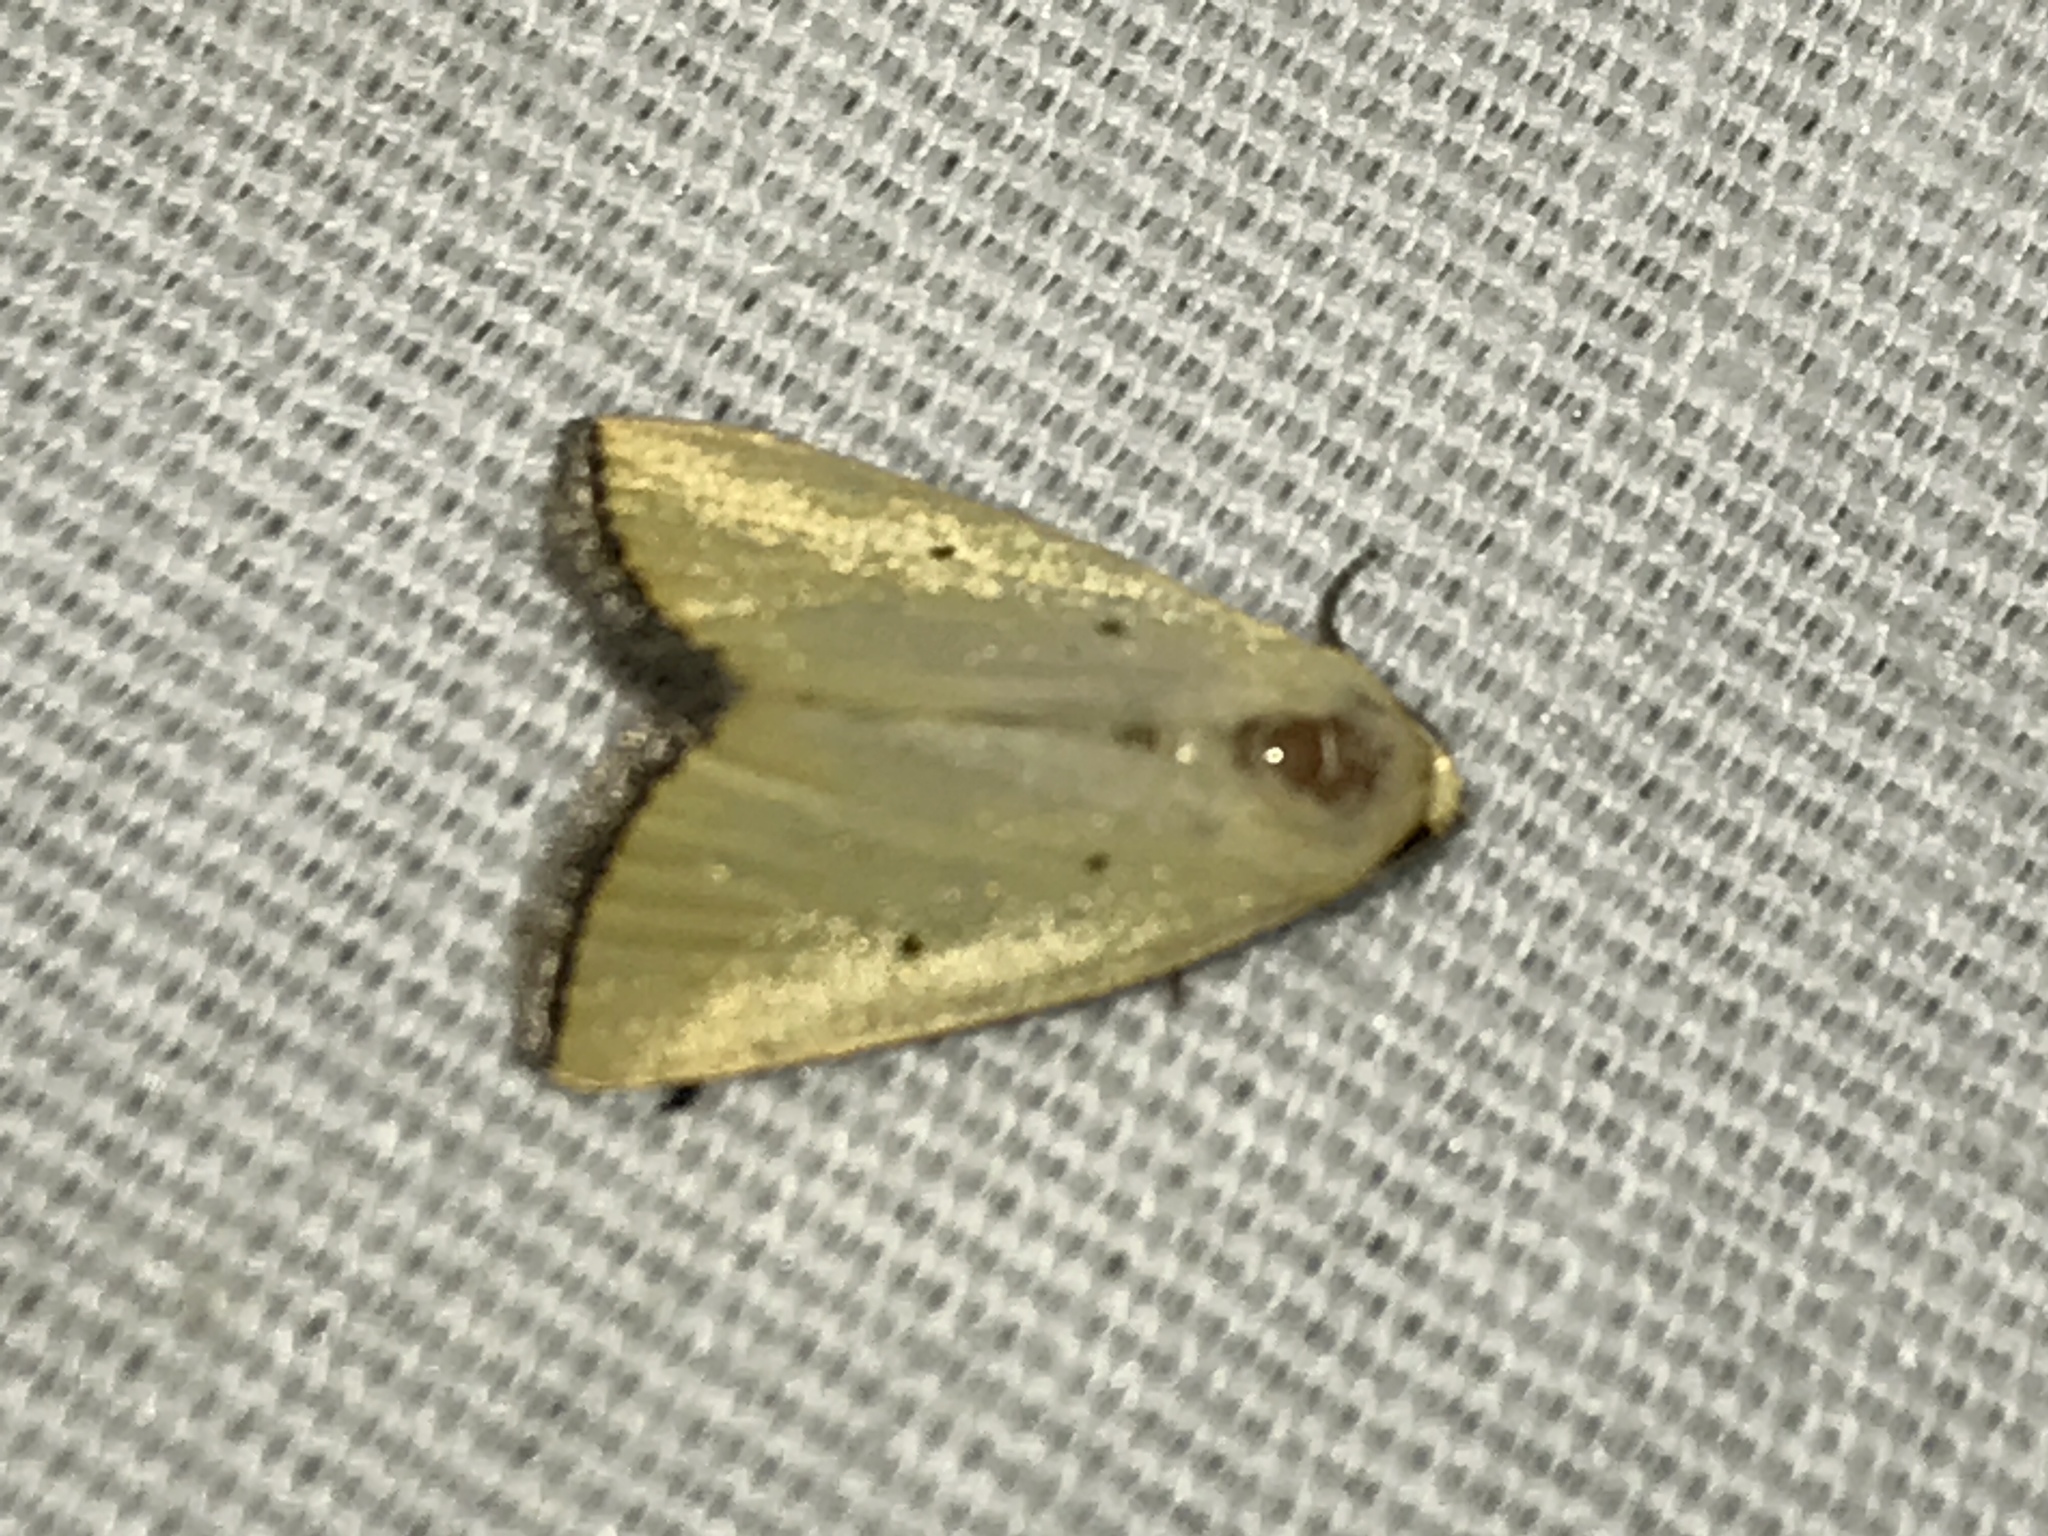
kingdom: Animalia
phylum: Arthropoda
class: Insecta
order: Lepidoptera
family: Noctuidae
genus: Marimatha
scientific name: Marimatha nigrofimbria
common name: Black-bordered lemon moth
